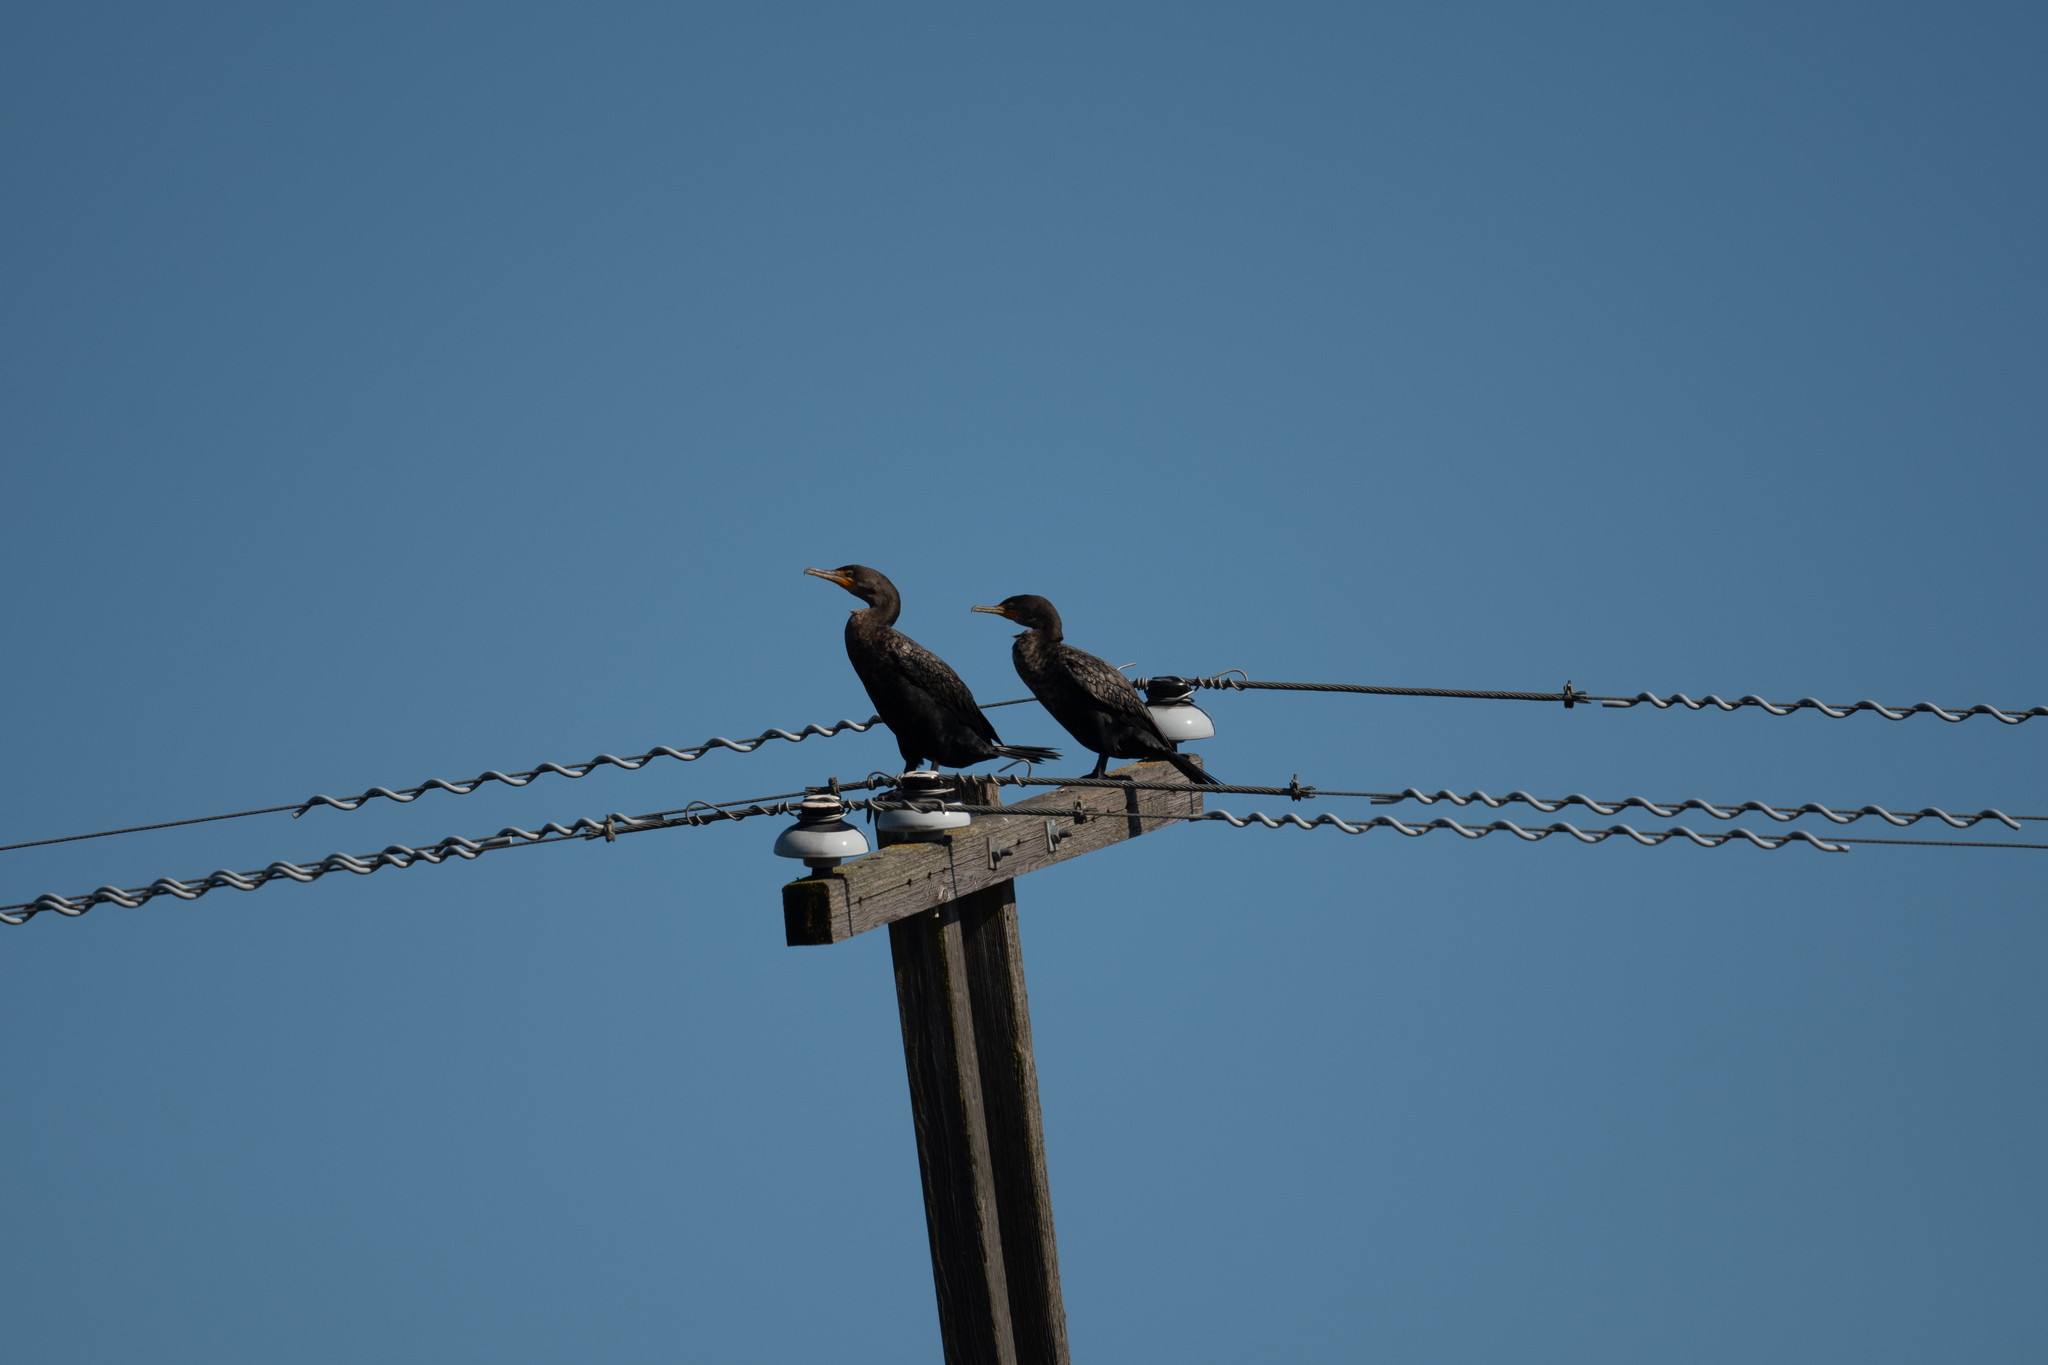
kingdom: Animalia
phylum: Chordata
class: Aves
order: Suliformes
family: Phalacrocoracidae
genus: Phalacrocorax
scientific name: Phalacrocorax auritus
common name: Double-crested cormorant
